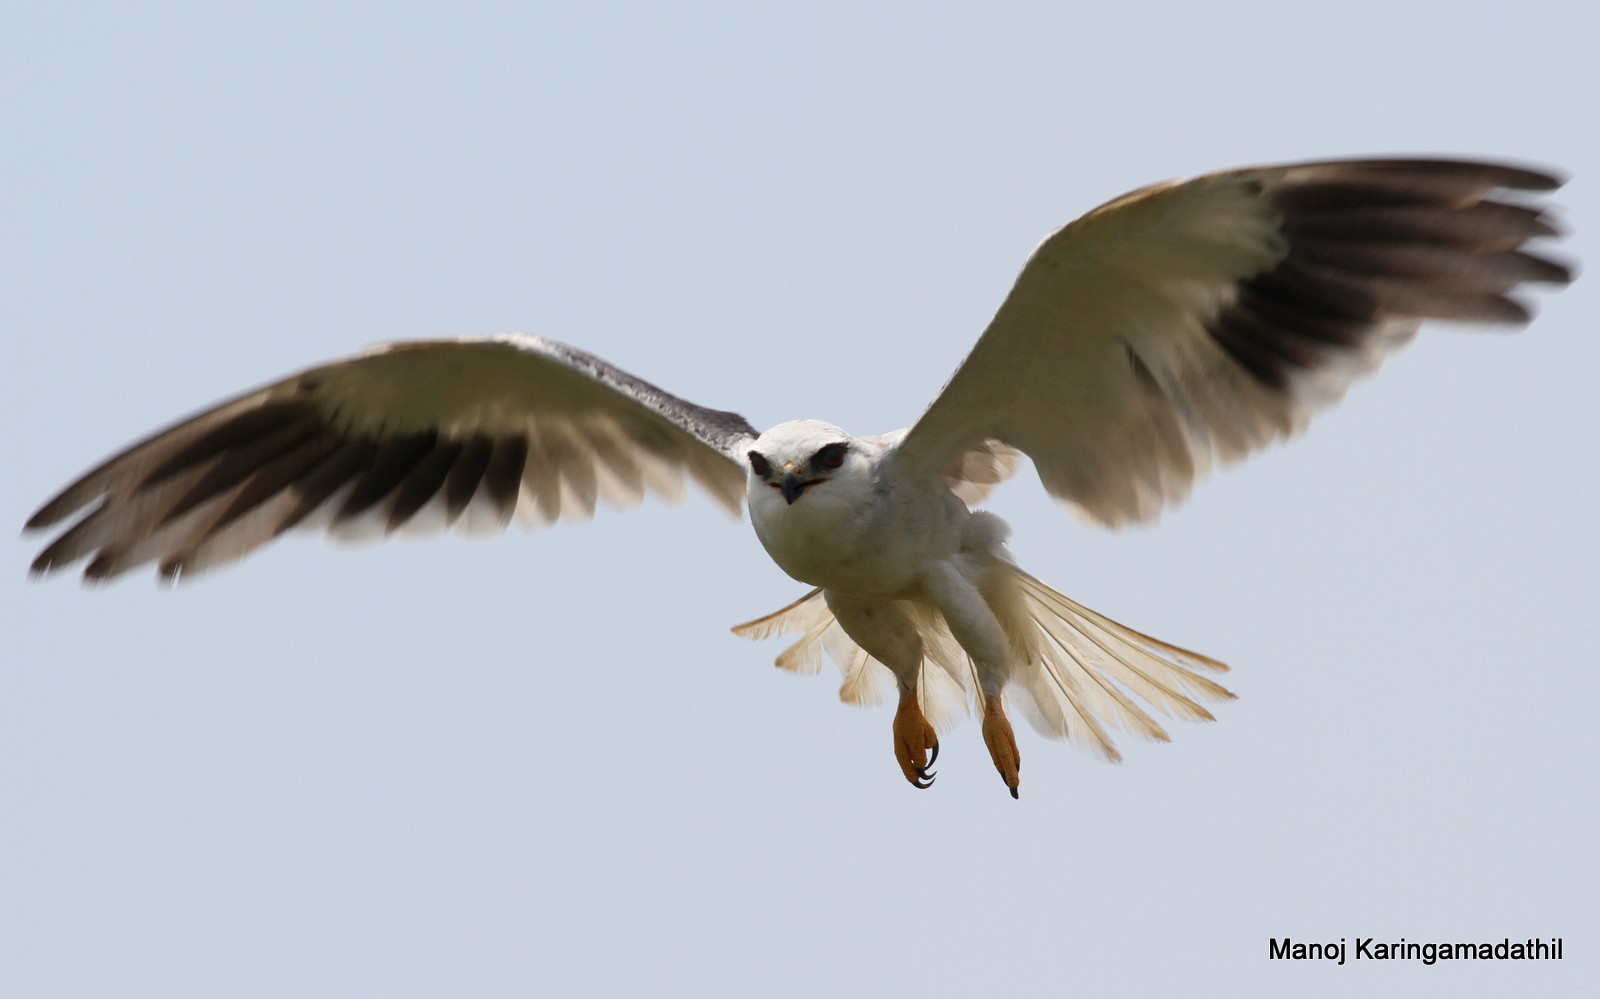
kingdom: Animalia
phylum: Chordata
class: Aves
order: Accipitriformes
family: Accipitridae
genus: Elanus
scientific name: Elanus caeruleus
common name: Black-winged kite
